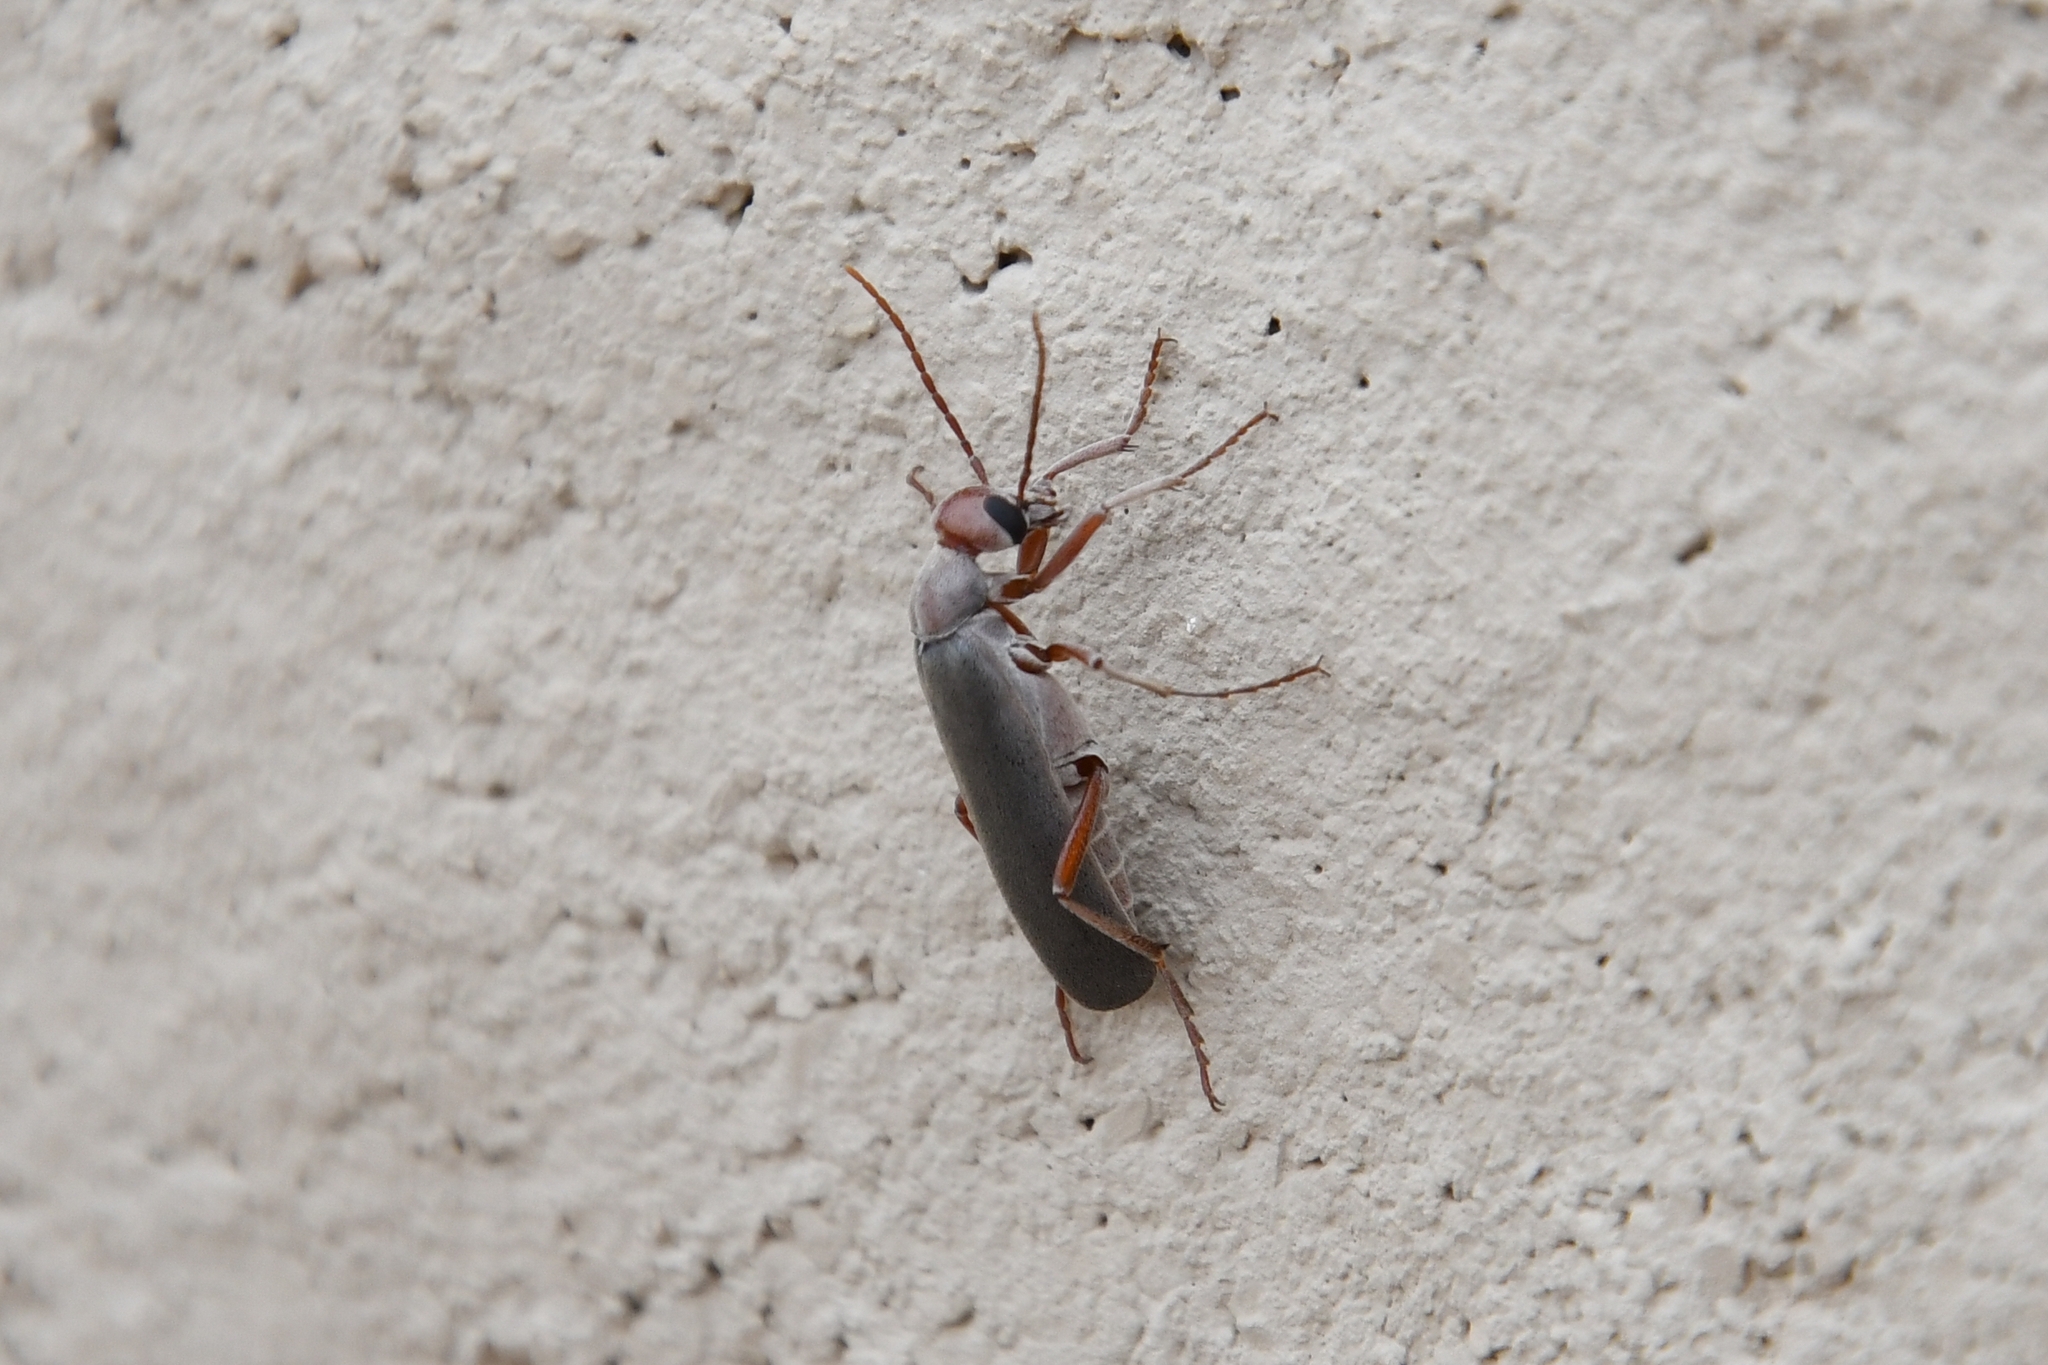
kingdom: Animalia
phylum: Arthropoda
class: Insecta
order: Coleoptera
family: Meloidae
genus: Epicauta
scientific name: Epicauta tenella
